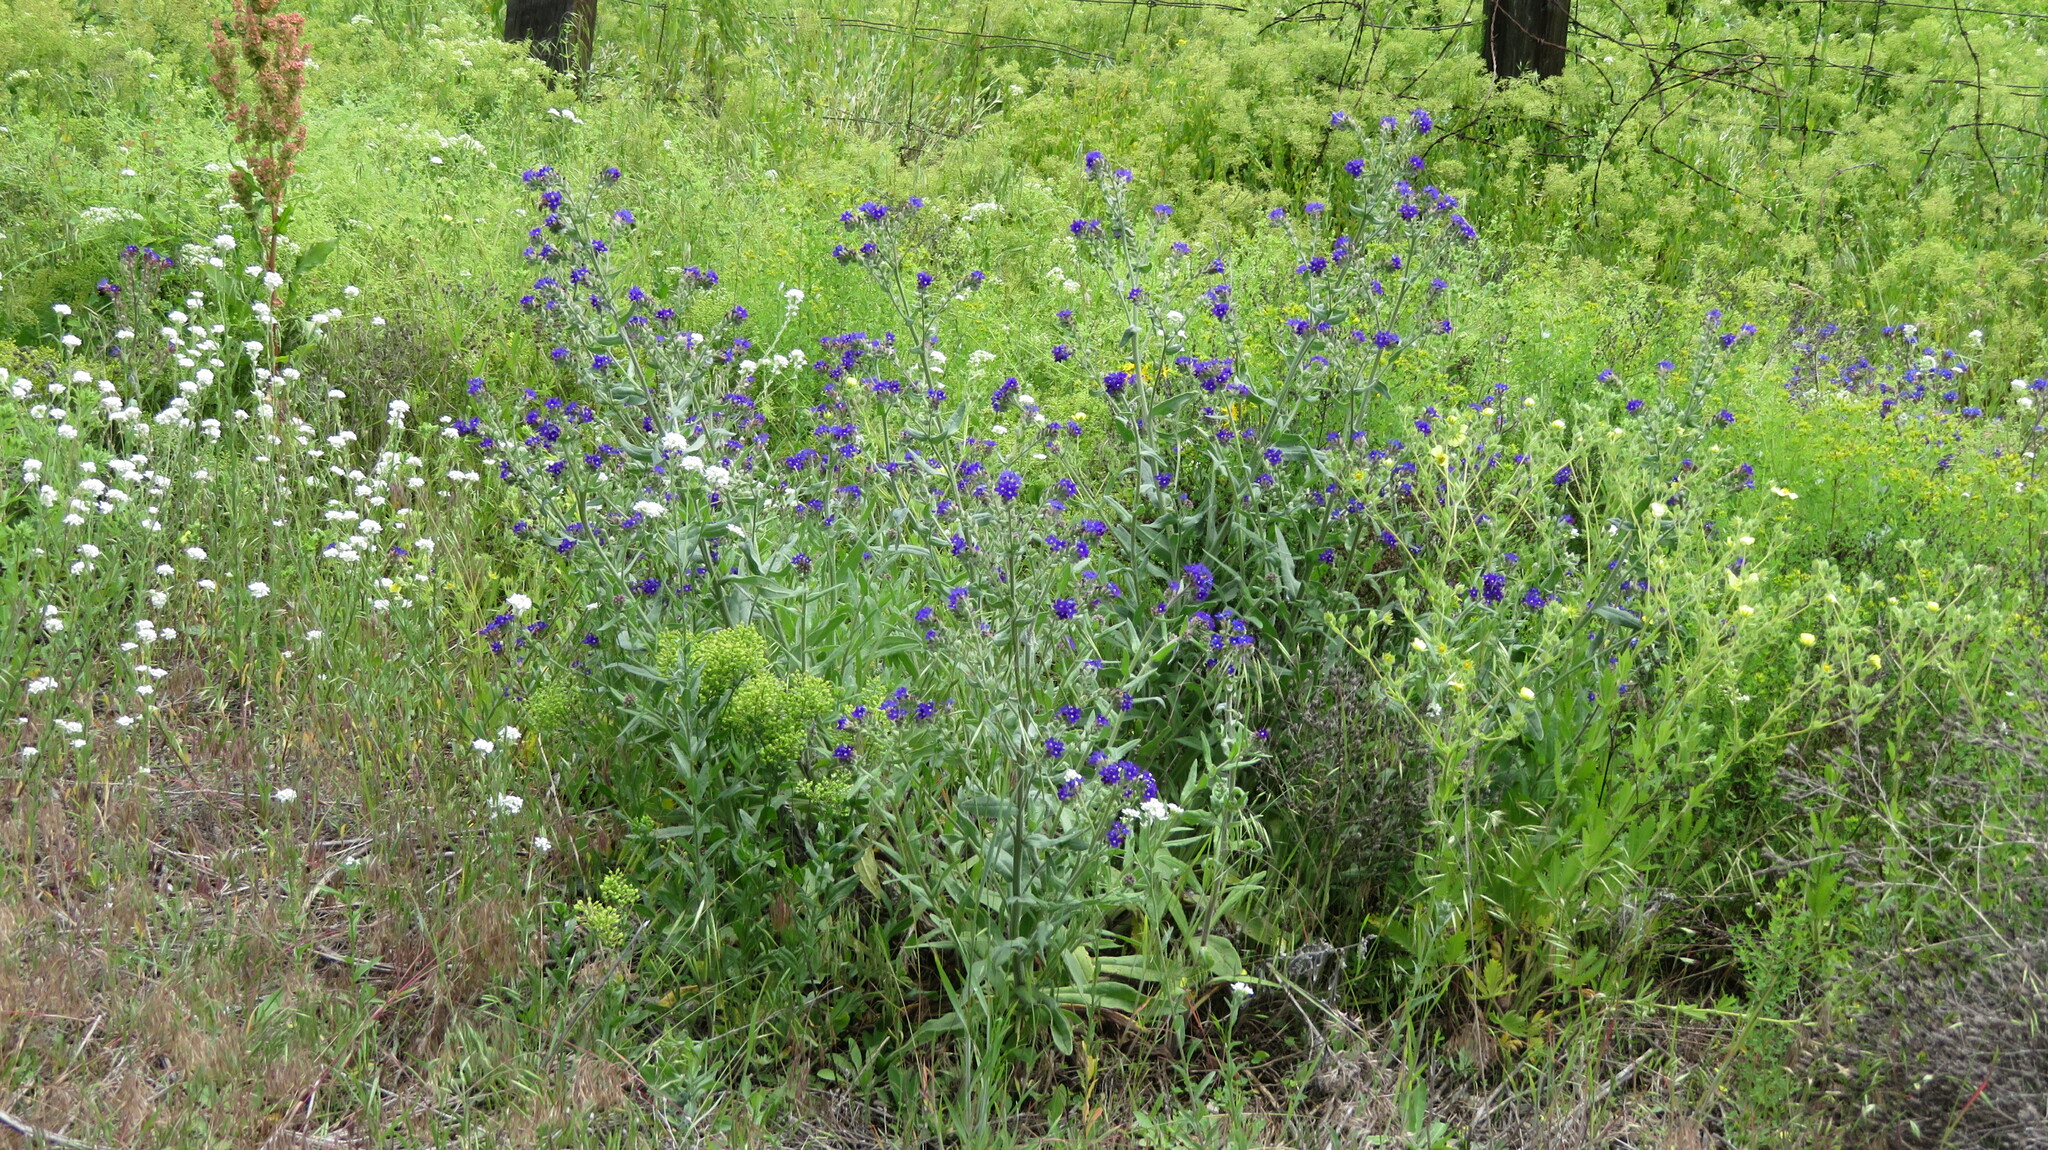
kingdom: Plantae
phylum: Tracheophyta
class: Magnoliopsida
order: Boraginales
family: Boraginaceae
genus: Anchusa
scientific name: Anchusa officinalis
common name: Alkanet
